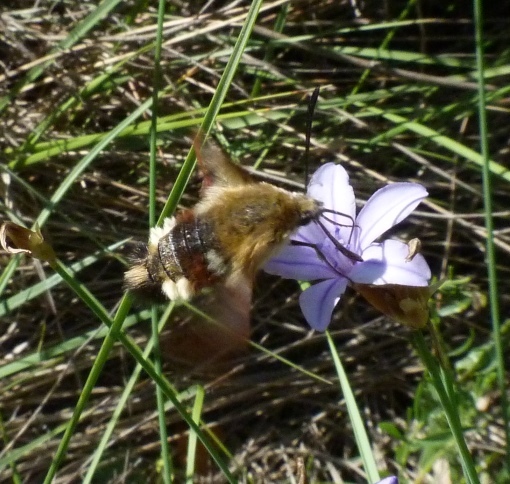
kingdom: Animalia
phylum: Arthropoda
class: Insecta
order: Lepidoptera
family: Sphingidae
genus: Hemaris
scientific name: Hemaris fuciformis
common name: Broad-bordered bee hawk-moth
